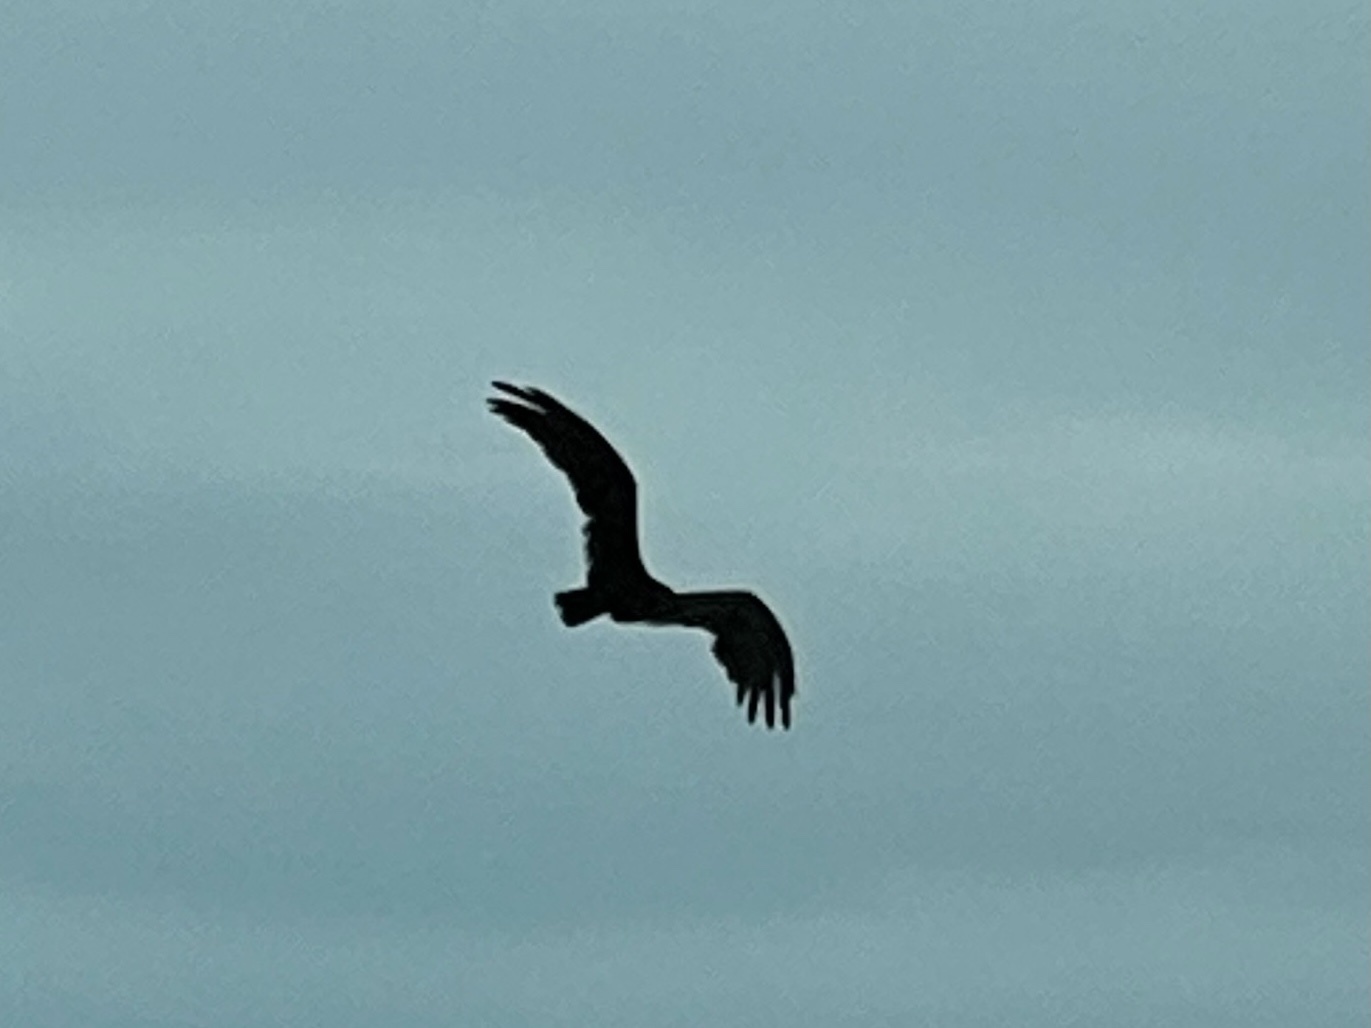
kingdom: Animalia
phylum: Chordata
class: Aves
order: Accipitriformes
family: Cathartidae
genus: Cathartes
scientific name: Cathartes aura
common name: Turkey vulture
